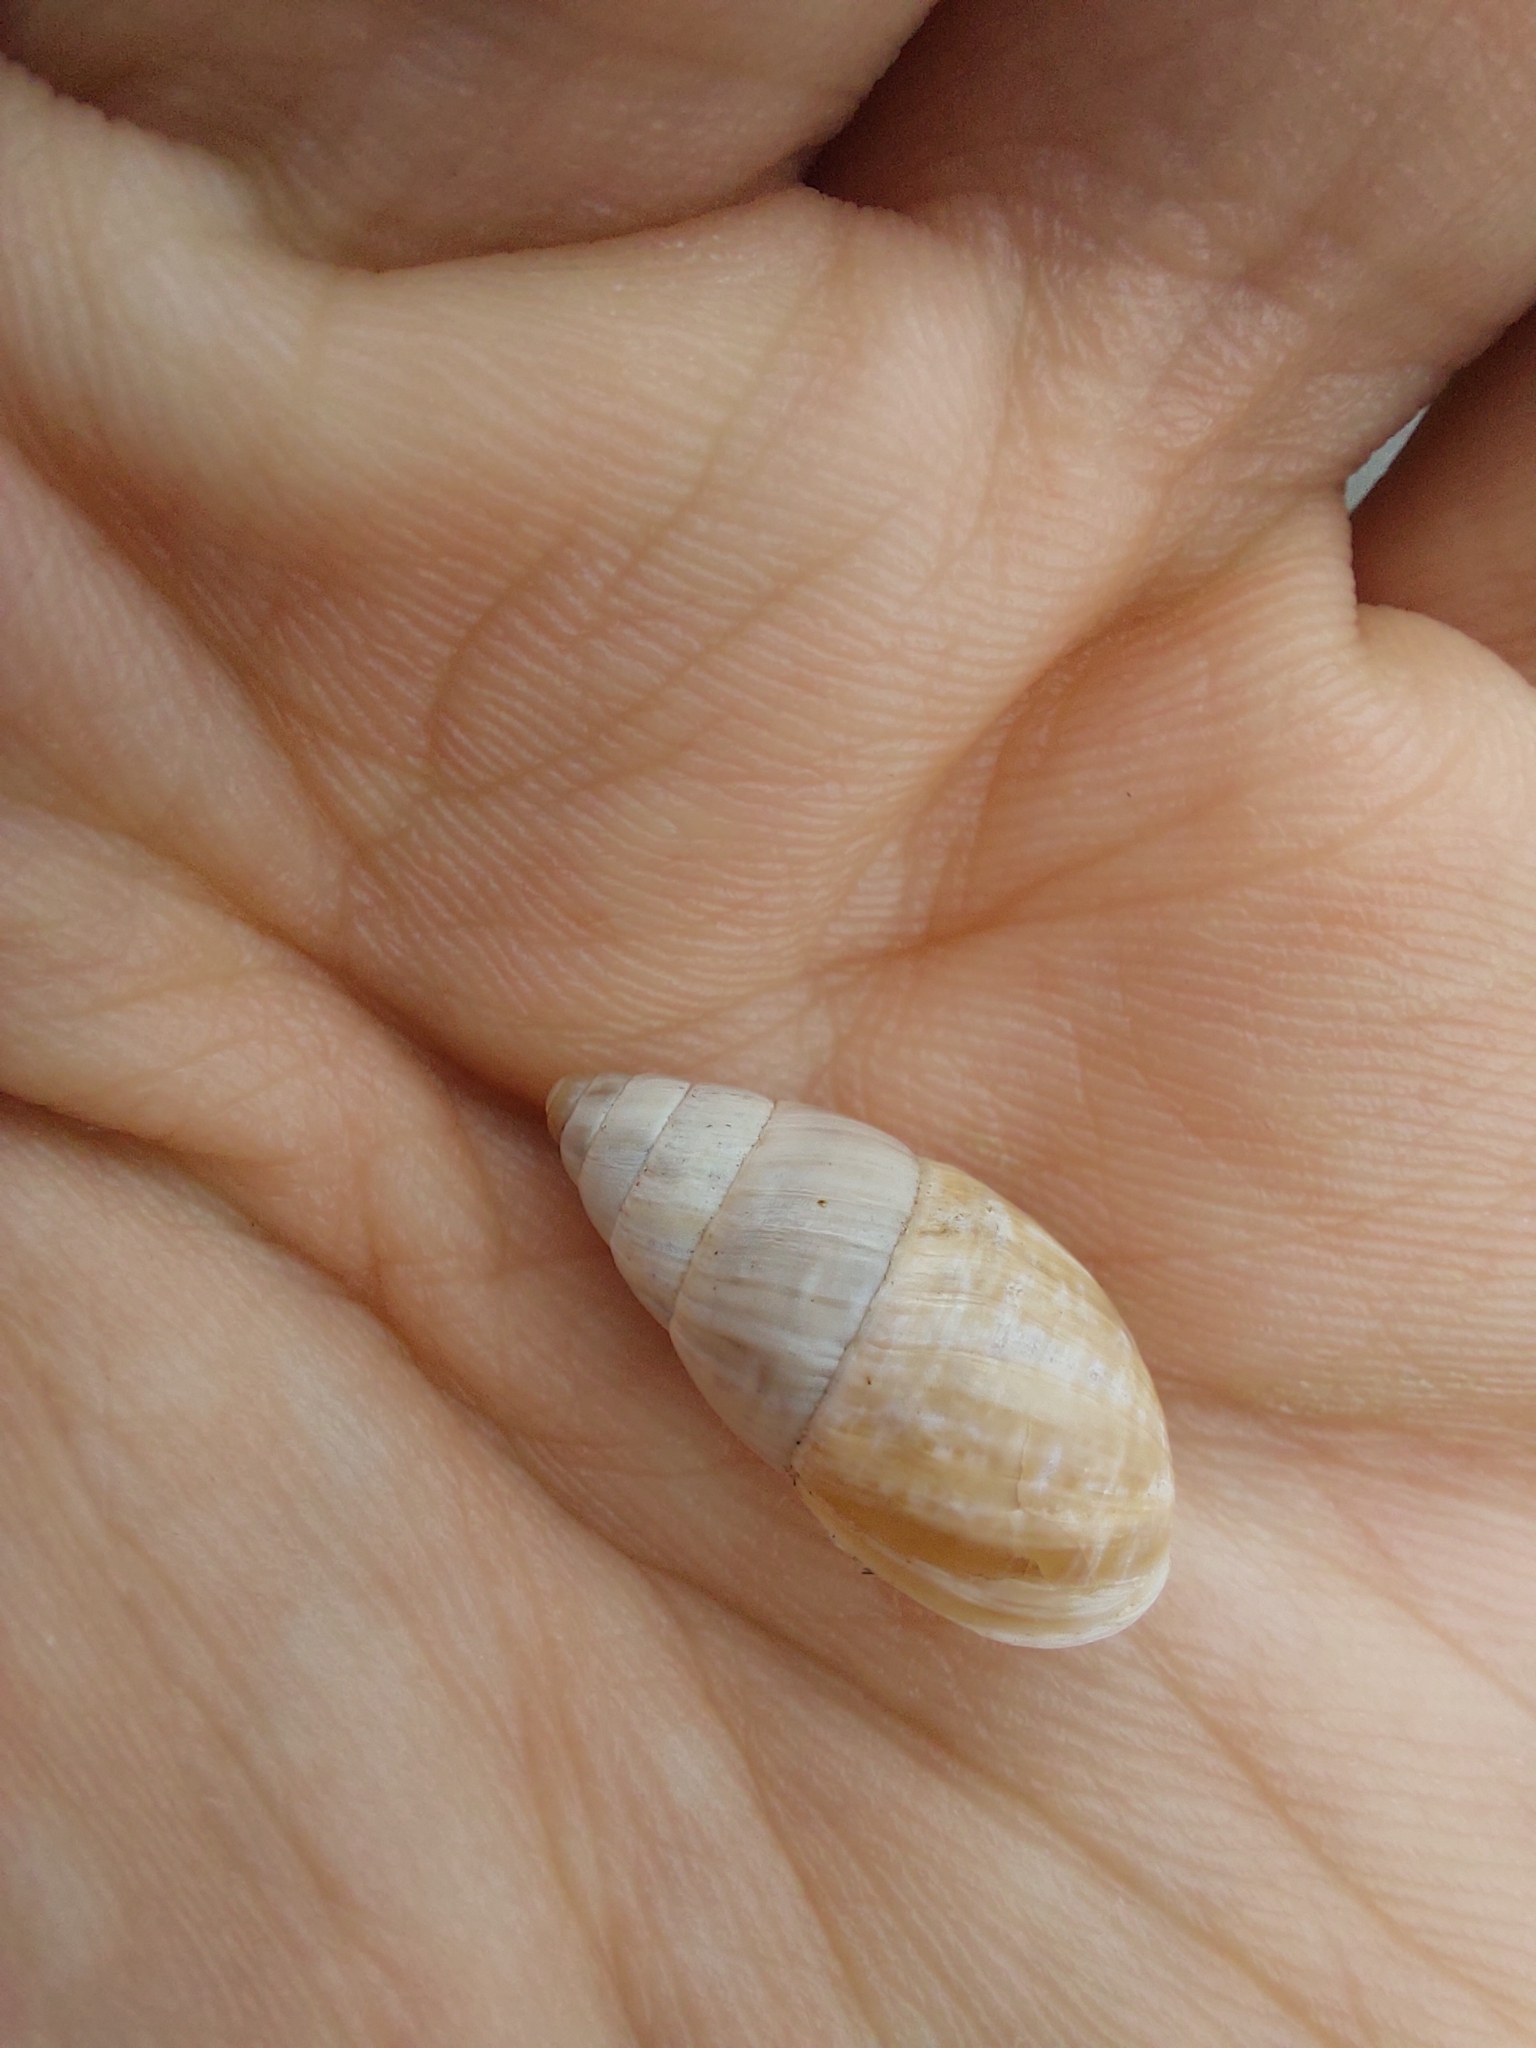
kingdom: Animalia
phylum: Mollusca
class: Gastropoda
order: Stylommatophora
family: Enidae
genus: Zebrina
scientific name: Zebrina detrita
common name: Large bulin
